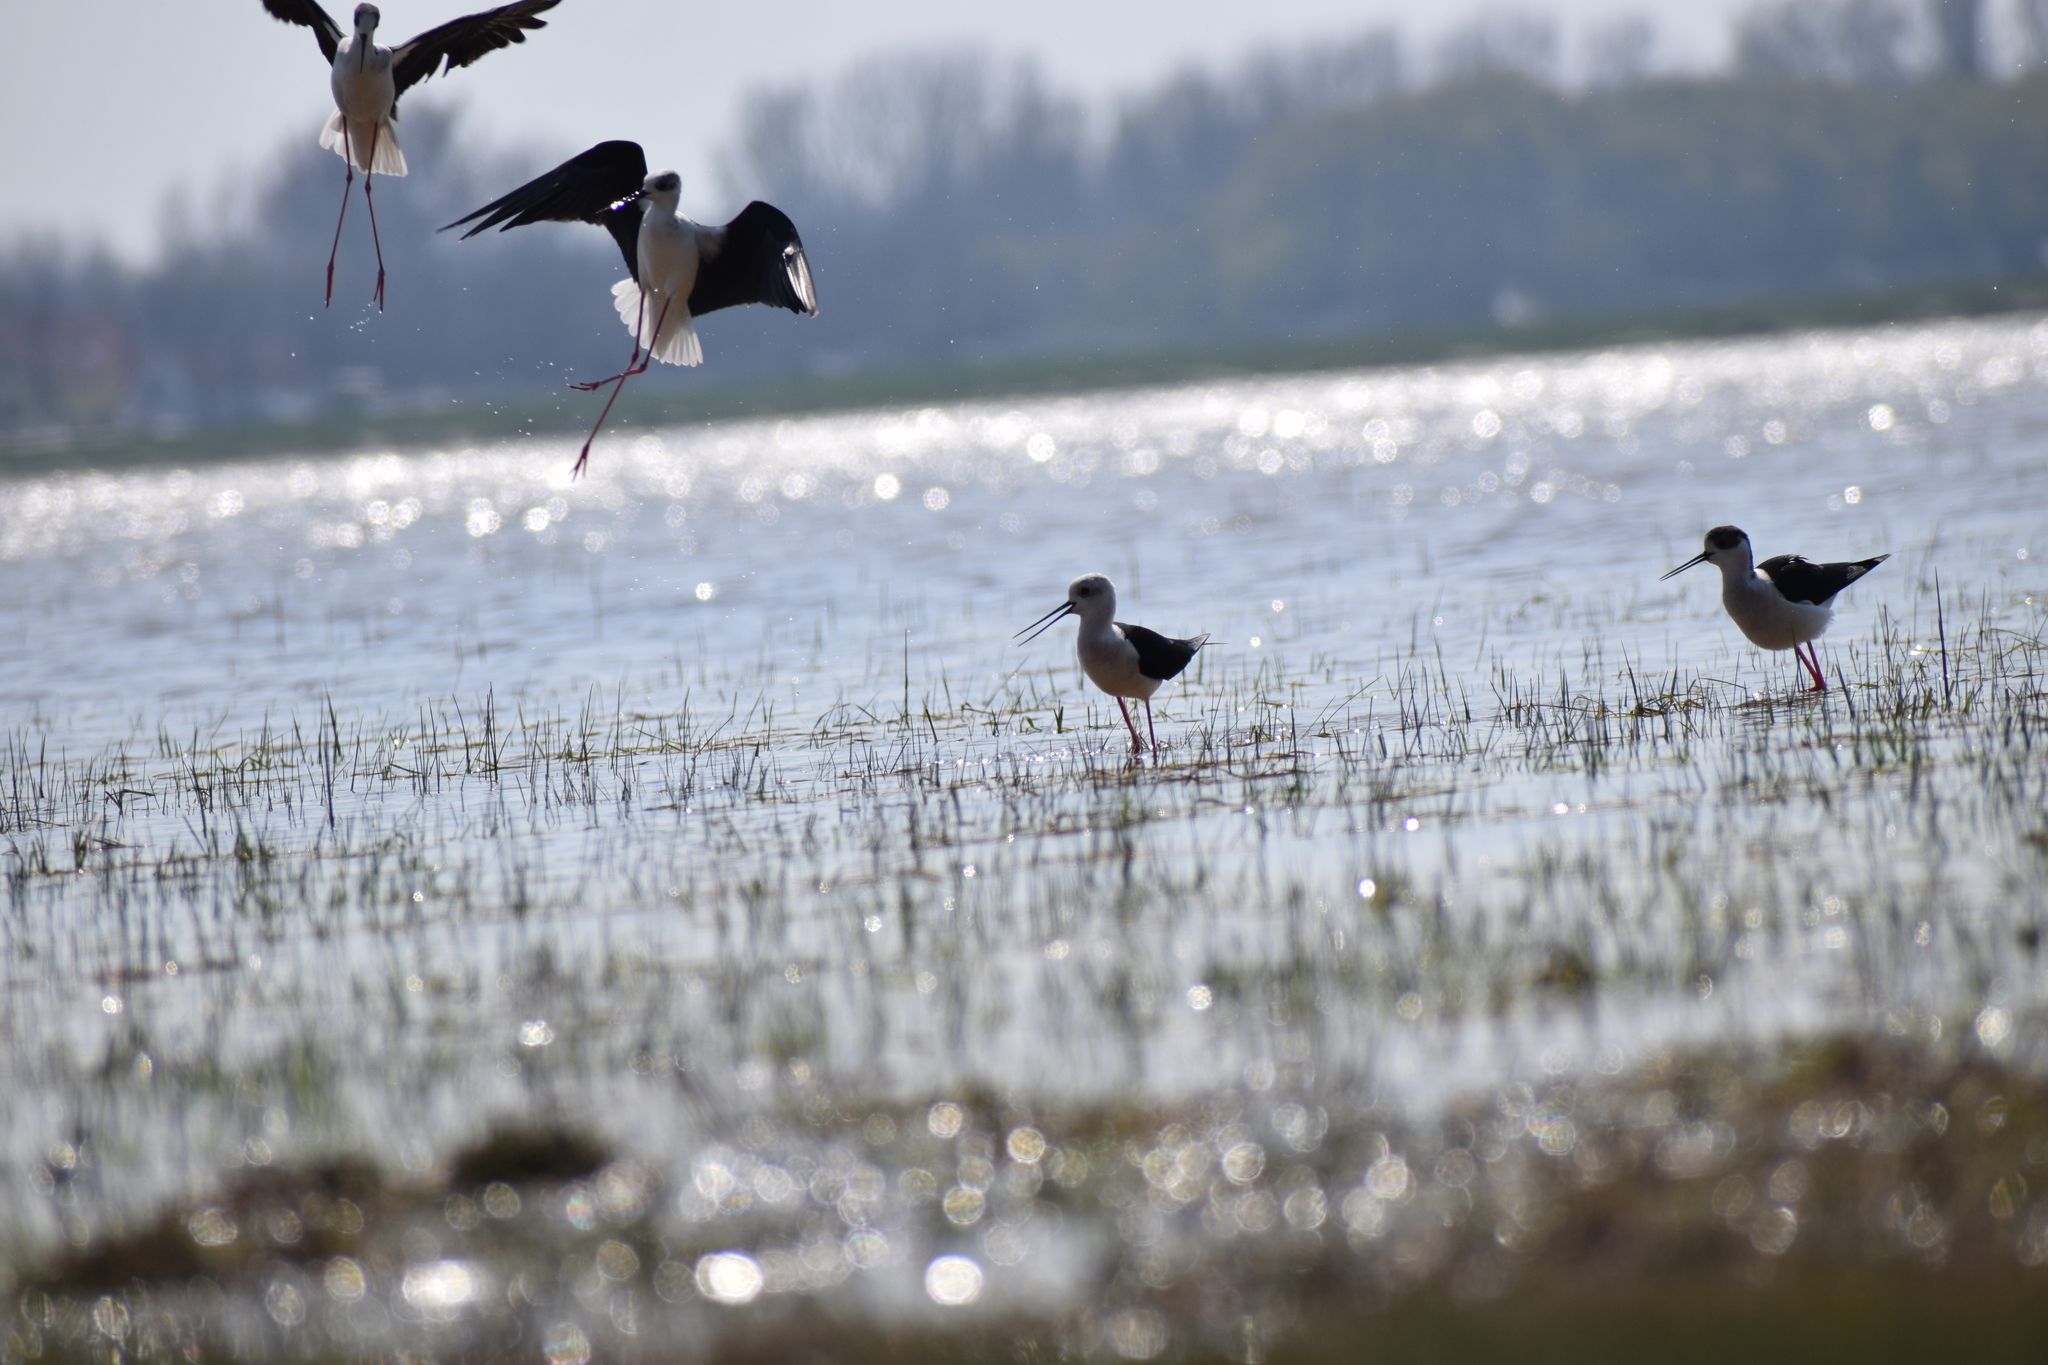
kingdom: Animalia
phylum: Chordata
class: Aves
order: Charadriiformes
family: Recurvirostridae
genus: Himantopus
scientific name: Himantopus himantopus
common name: Black-winged stilt
